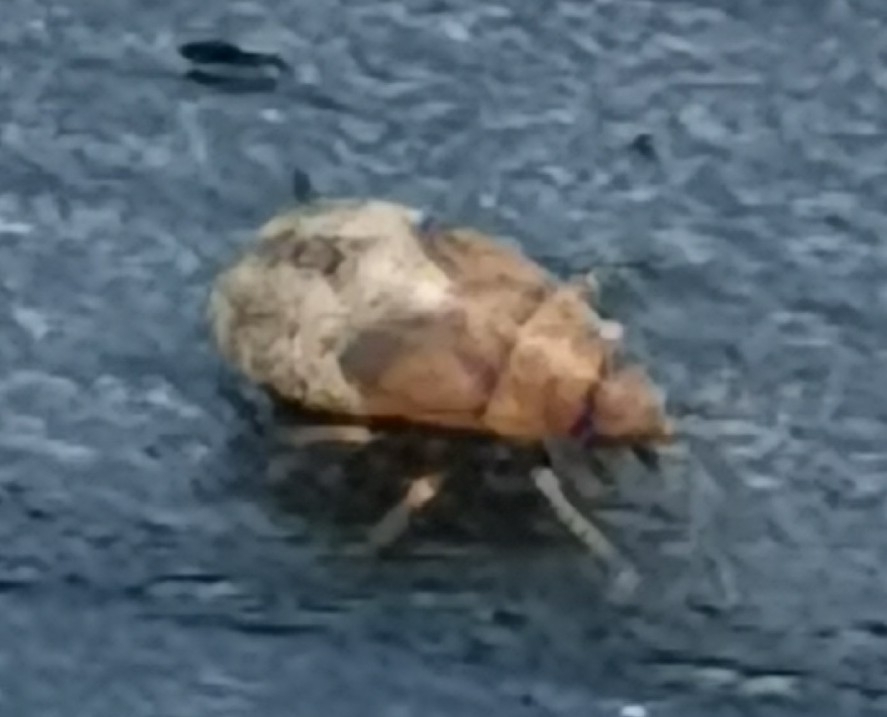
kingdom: Animalia
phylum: Arthropoda
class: Insecta
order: Hemiptera
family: Lygaeidae
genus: Kleidocerys
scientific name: Kleidocerys resedae
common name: Birch catkin bug
